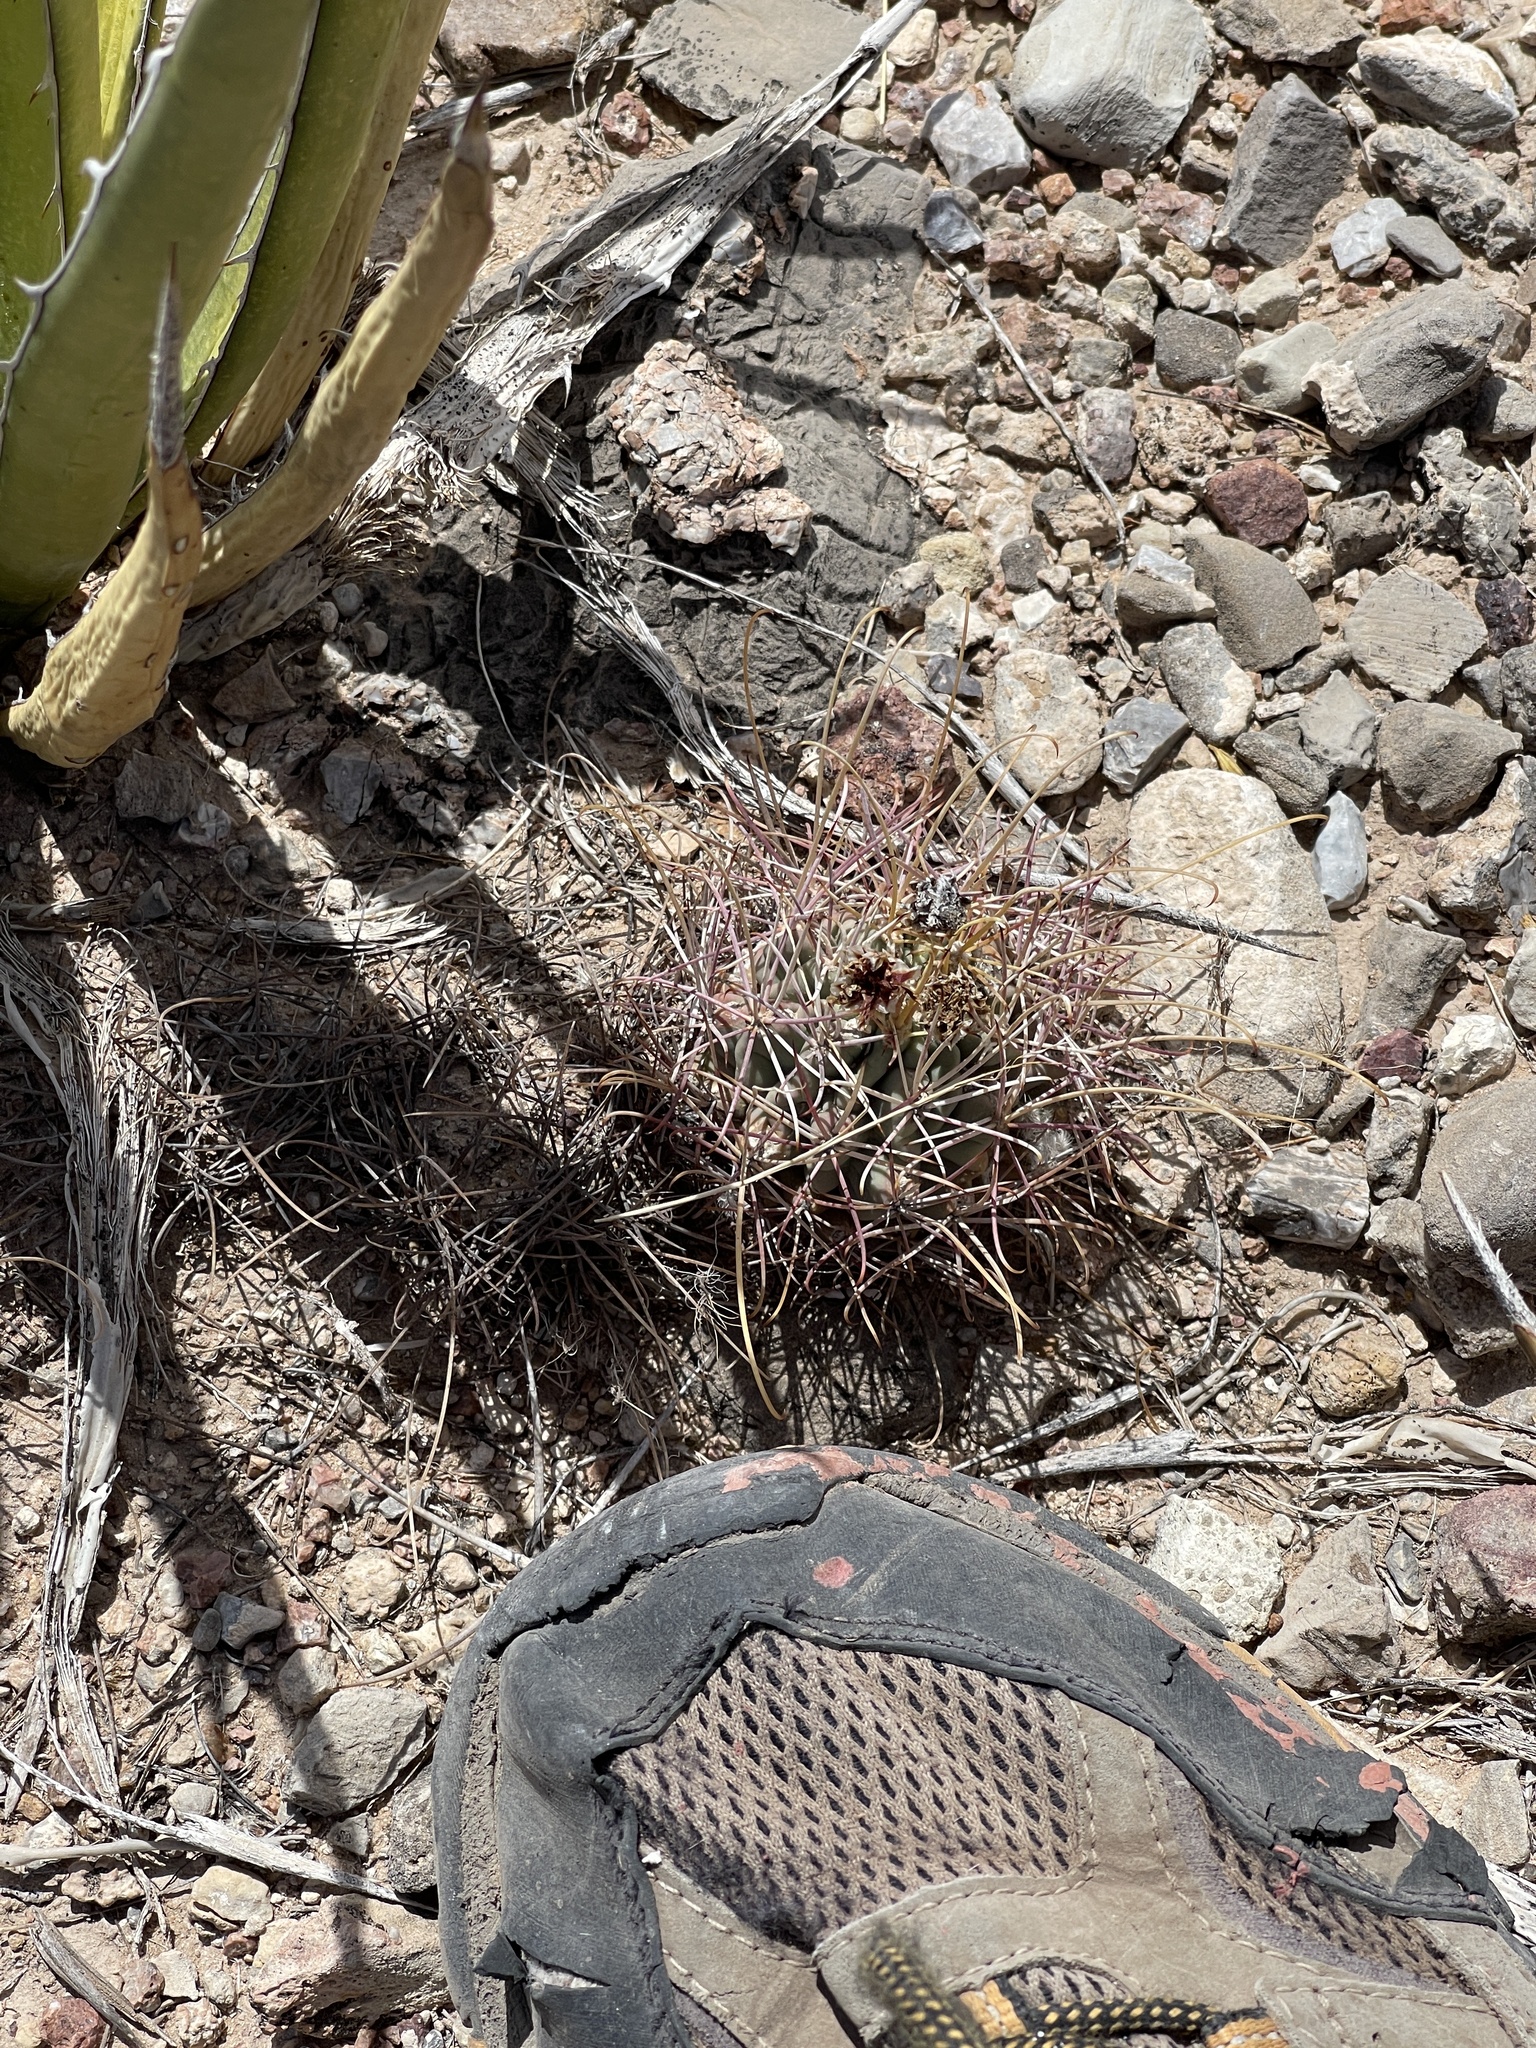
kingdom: Plantae
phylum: Tracheophyta
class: Magnoliopsida
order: Caryophyllales
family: Cactaceae
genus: Ferocactus
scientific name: Ferocactus uncinatus
